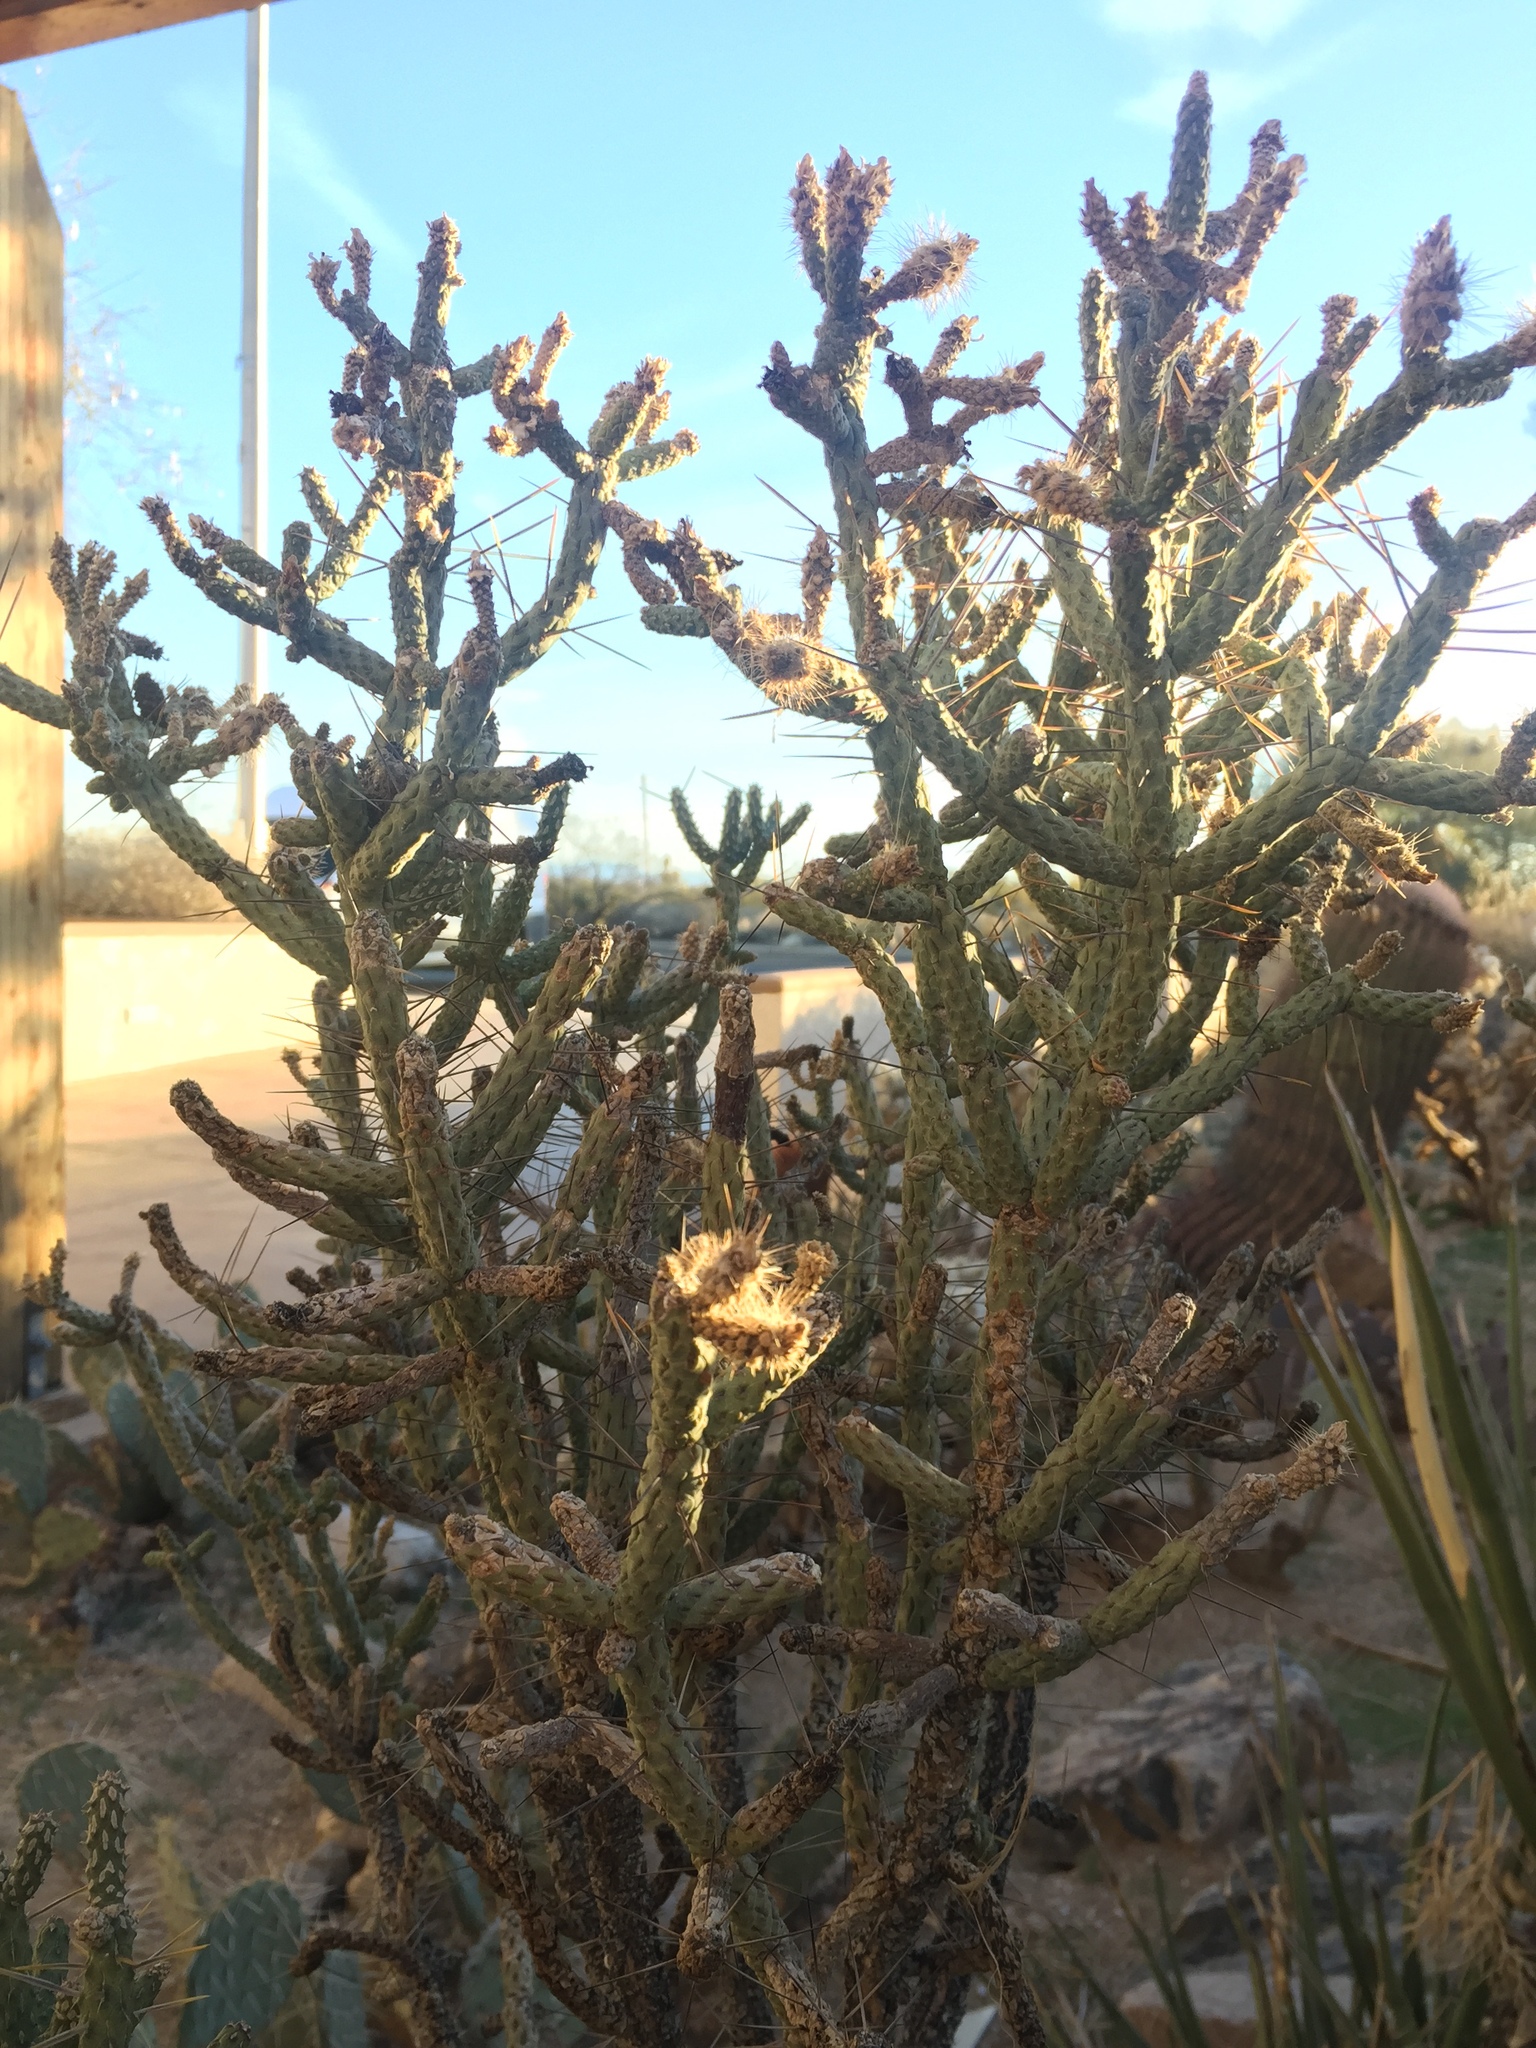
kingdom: Plantae
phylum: Tracheophyta
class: Magnoliopsida
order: Caryophyllales
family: Cactaceae
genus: Cylindropuntia
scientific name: Cylindropuntia ramosissima
